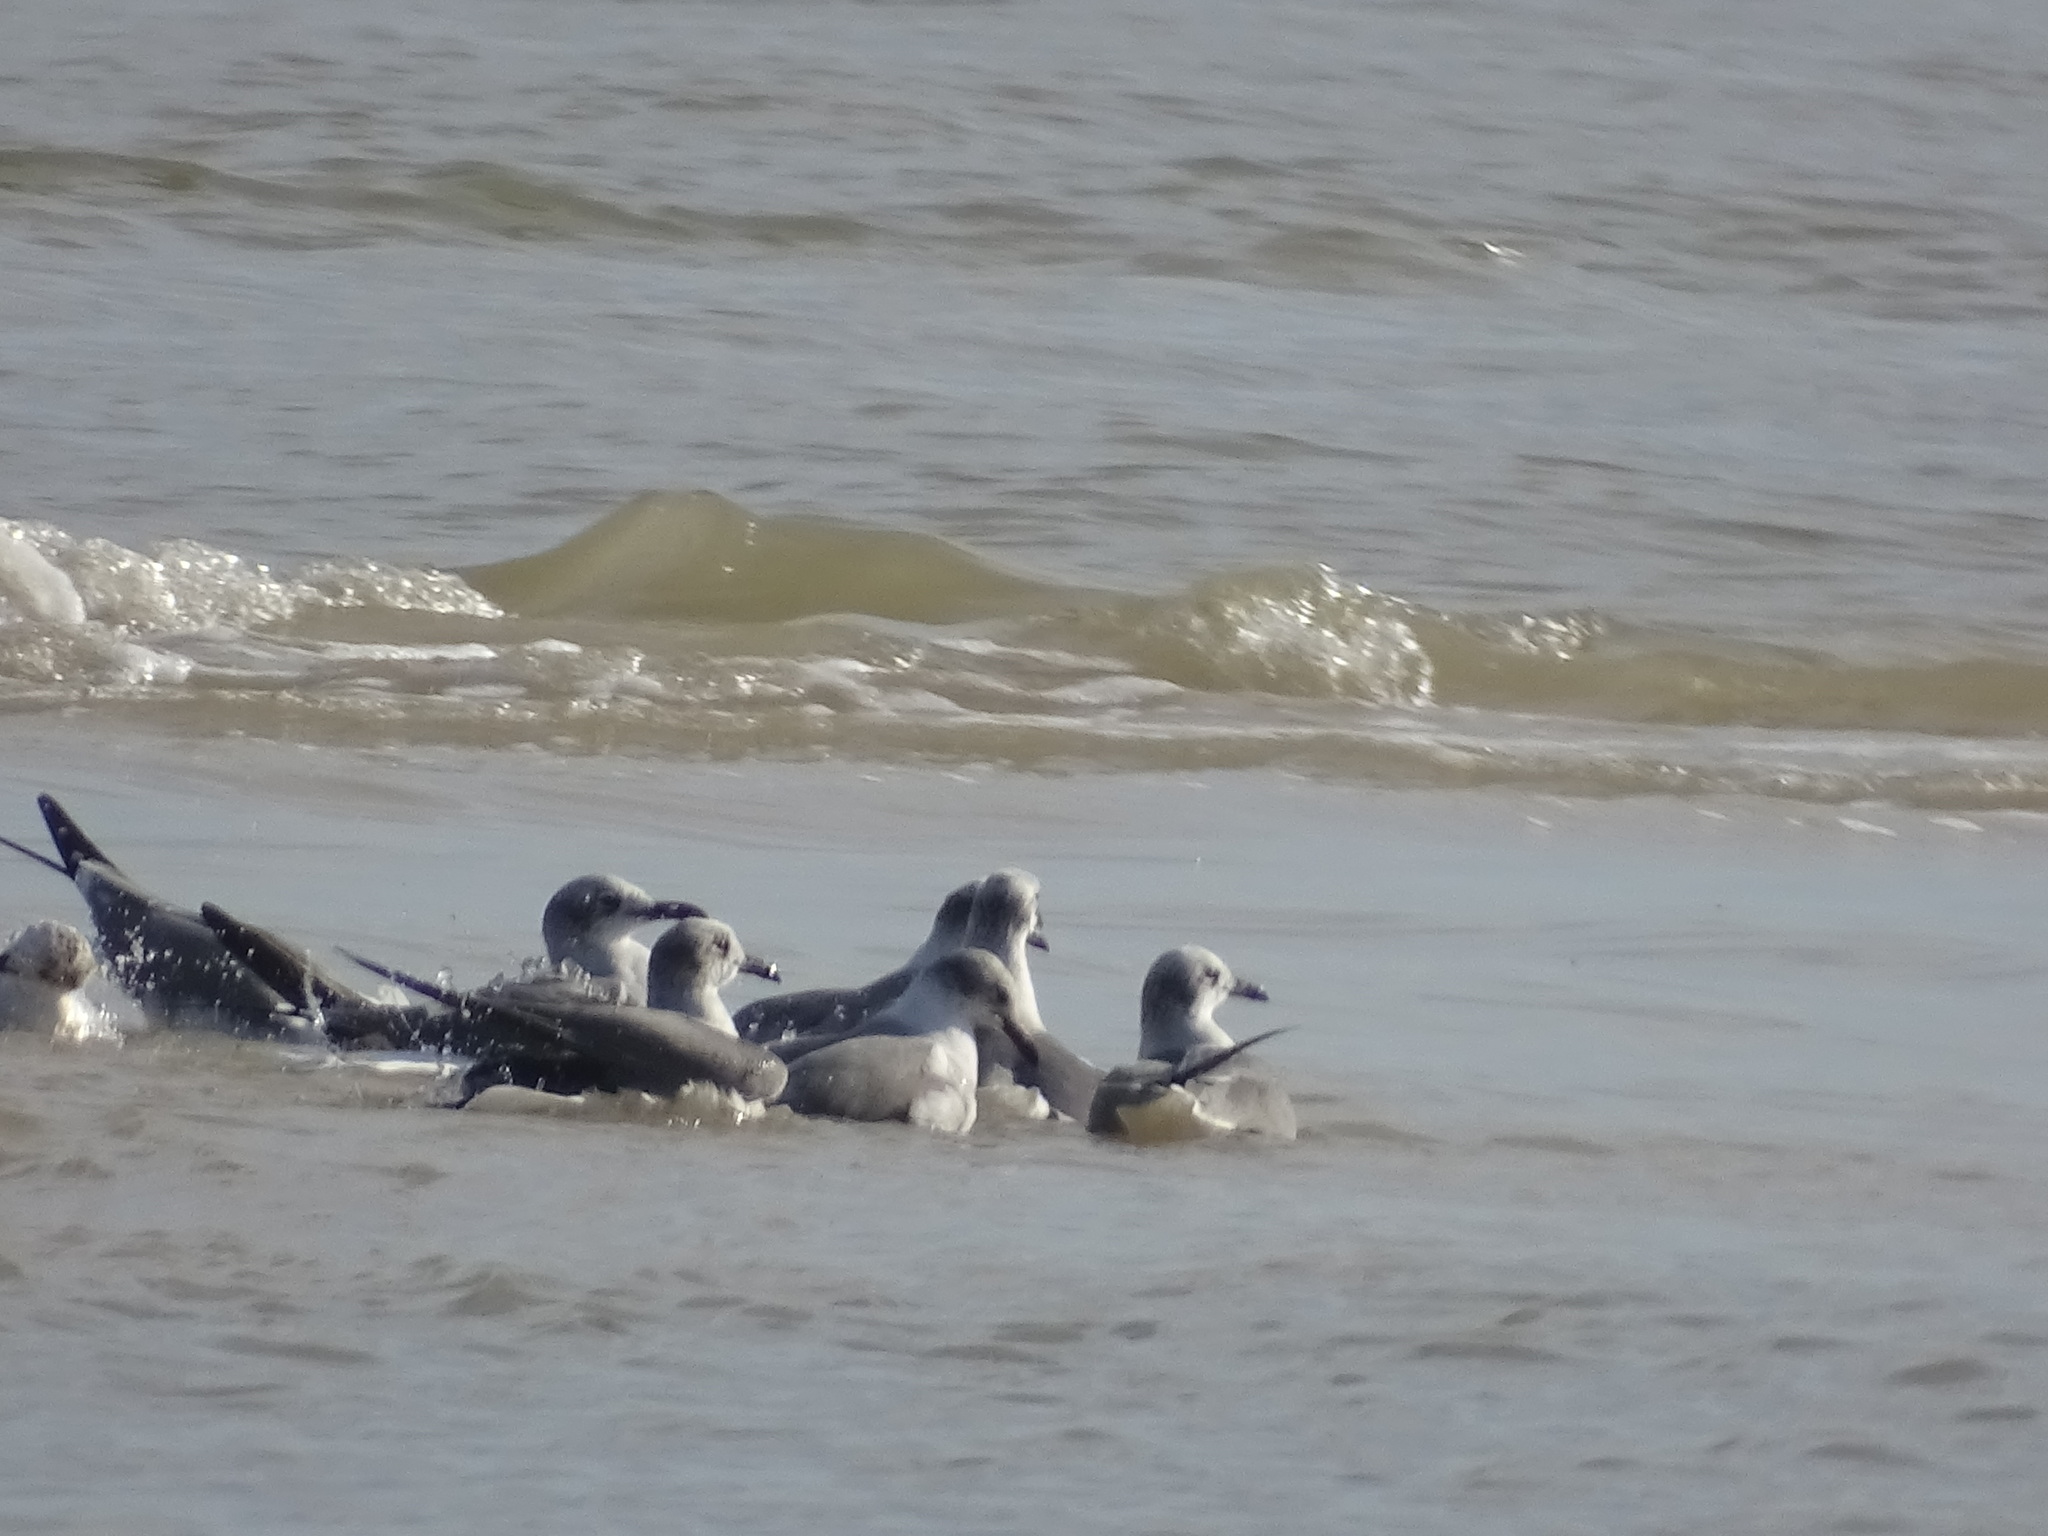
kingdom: Animalia
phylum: Chordata
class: Aves
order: Charadriiformes
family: Laridae
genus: Leucophaeus
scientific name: Leucophaeus atricilla
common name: Laughing gull
